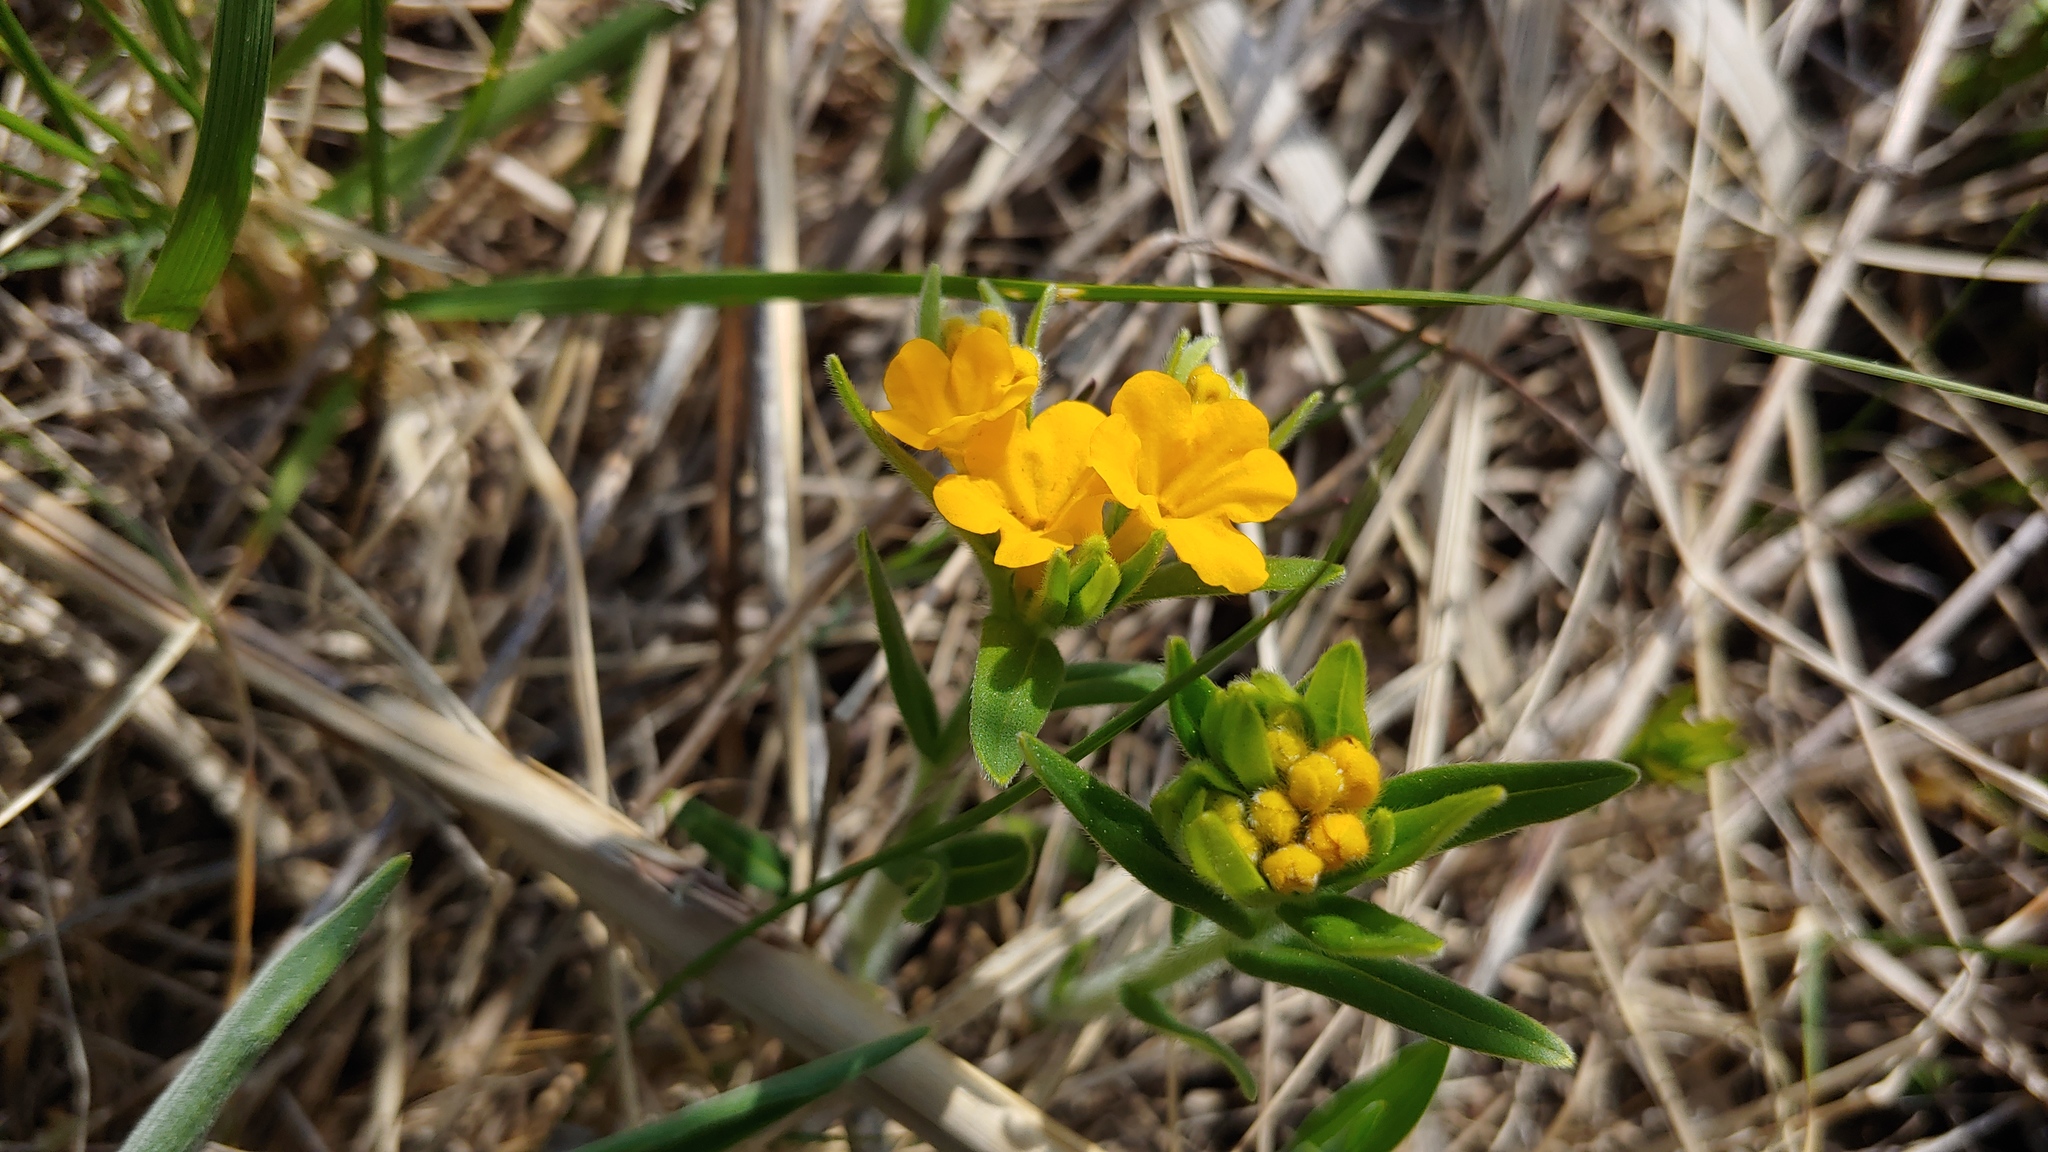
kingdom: Plantae
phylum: Tracheophyta
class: Magnoliopsida
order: Boraginales
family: Boraginaceae
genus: Lithospermum
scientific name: Lithospermum canescens
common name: Hoary puccoon
